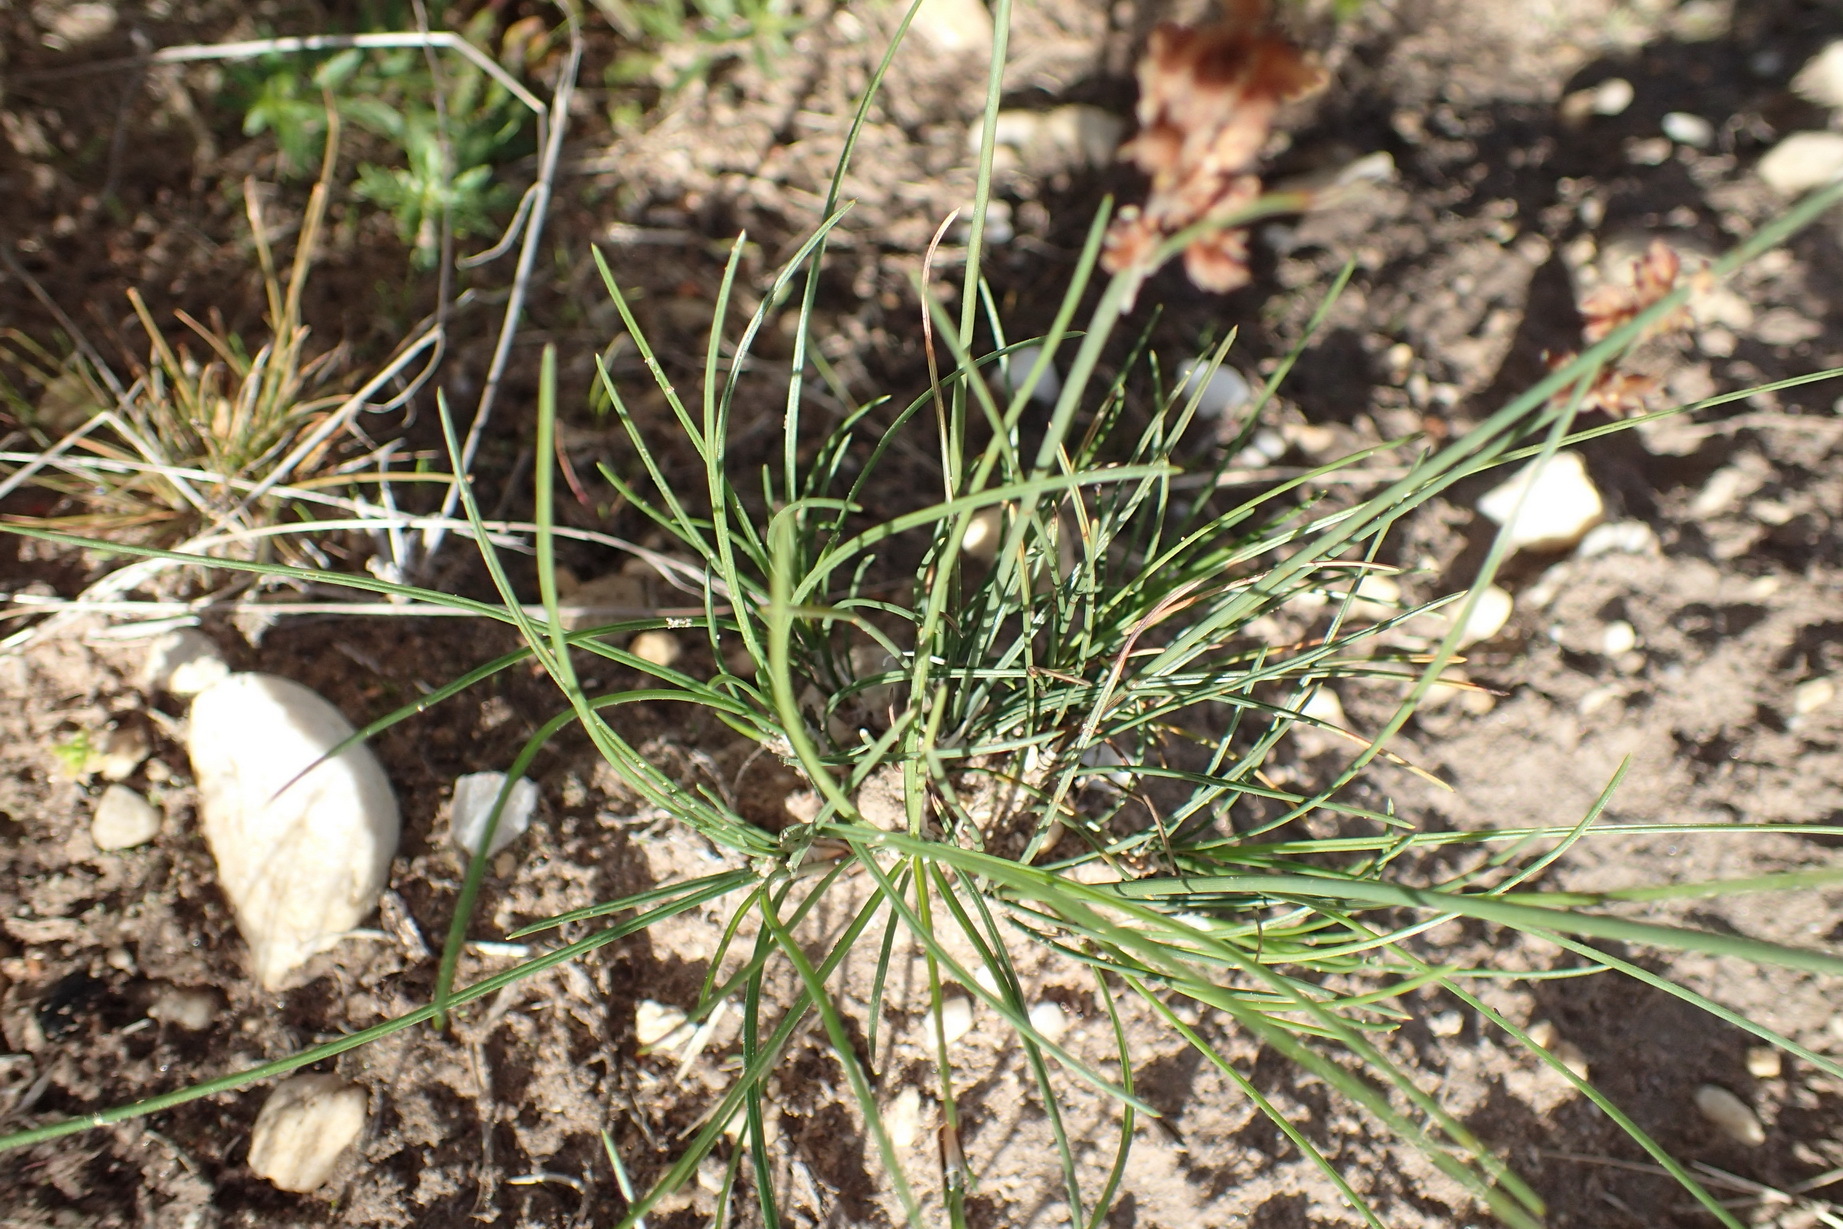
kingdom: Plantae
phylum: Tracheophyta
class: Liliopsida
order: Poales
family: Cyperaceae
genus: Ficinia
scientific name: Ficinia bulbosa
